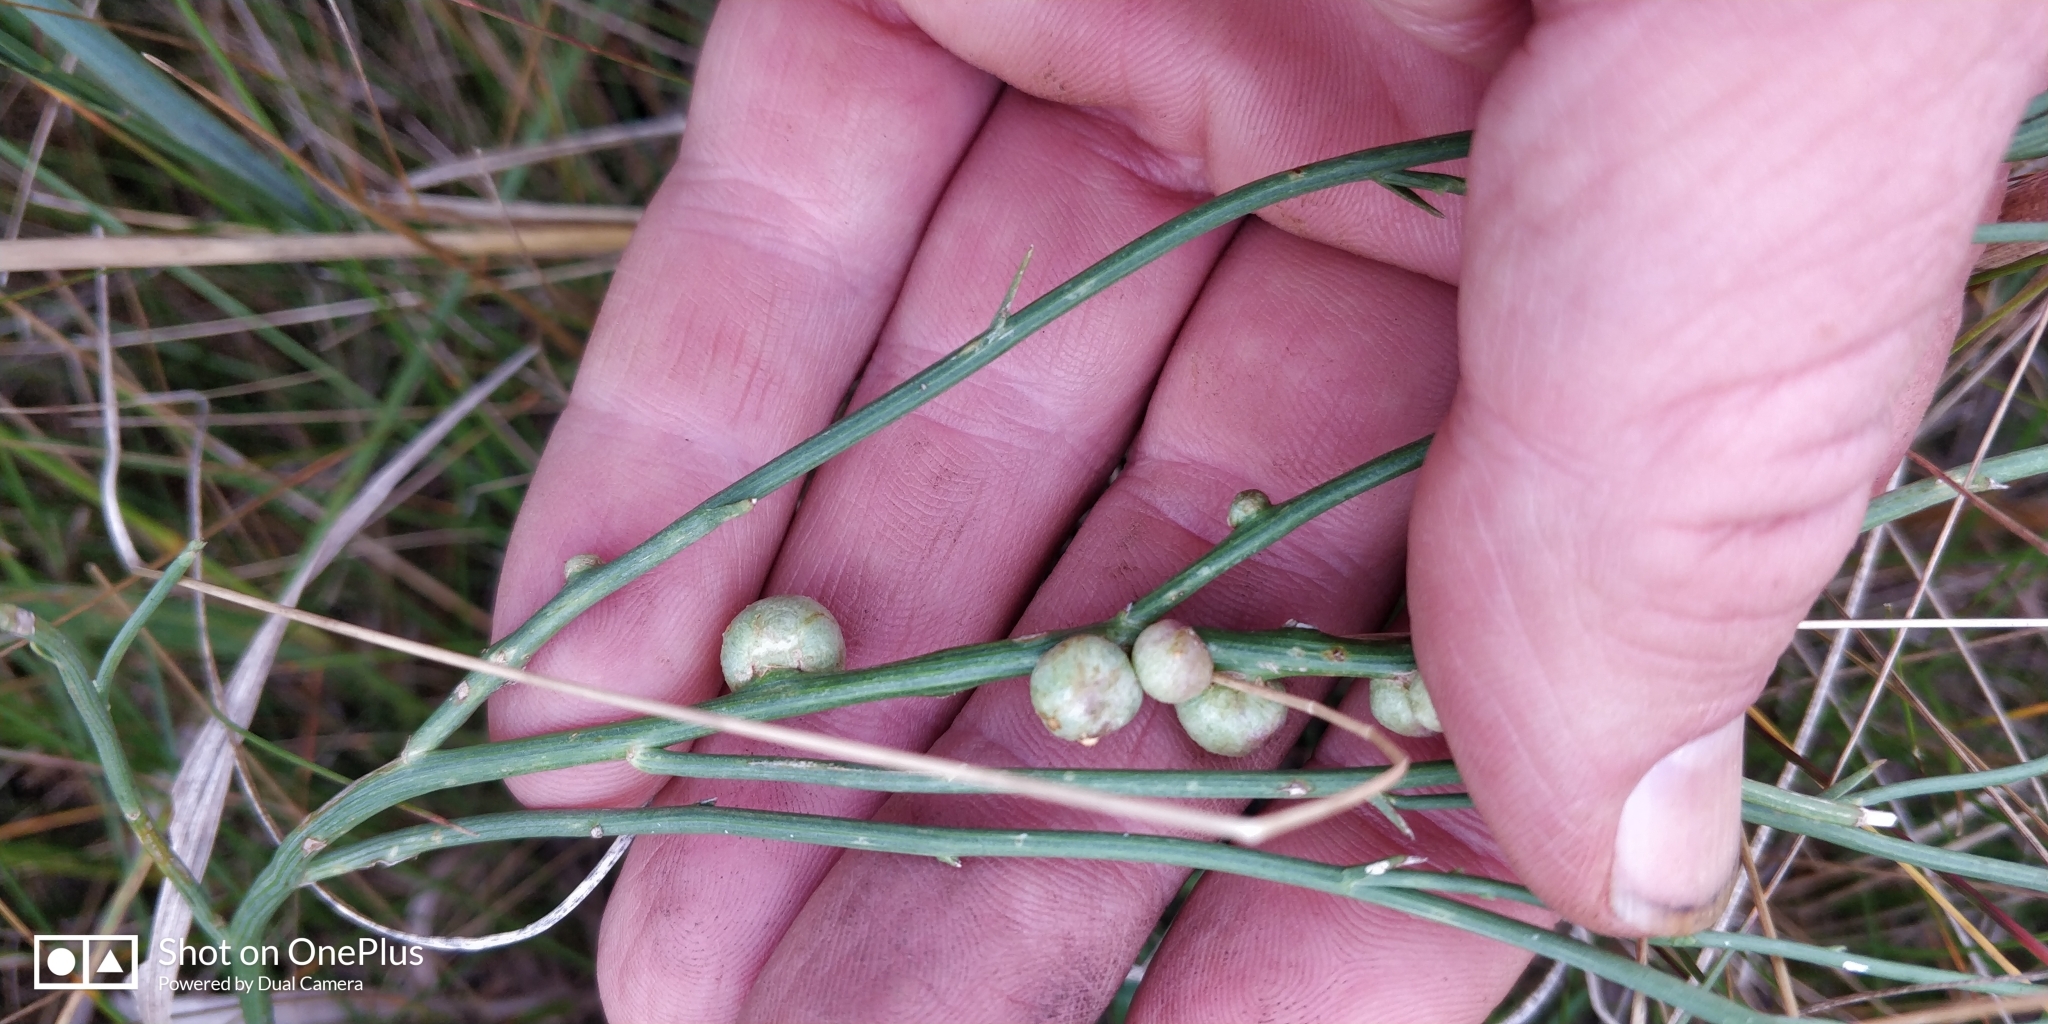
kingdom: Animalia
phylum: Arthropoda
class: Insecta
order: Hymenoptera
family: Cynipidae
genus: Antistrophus
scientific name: Antistrophus
